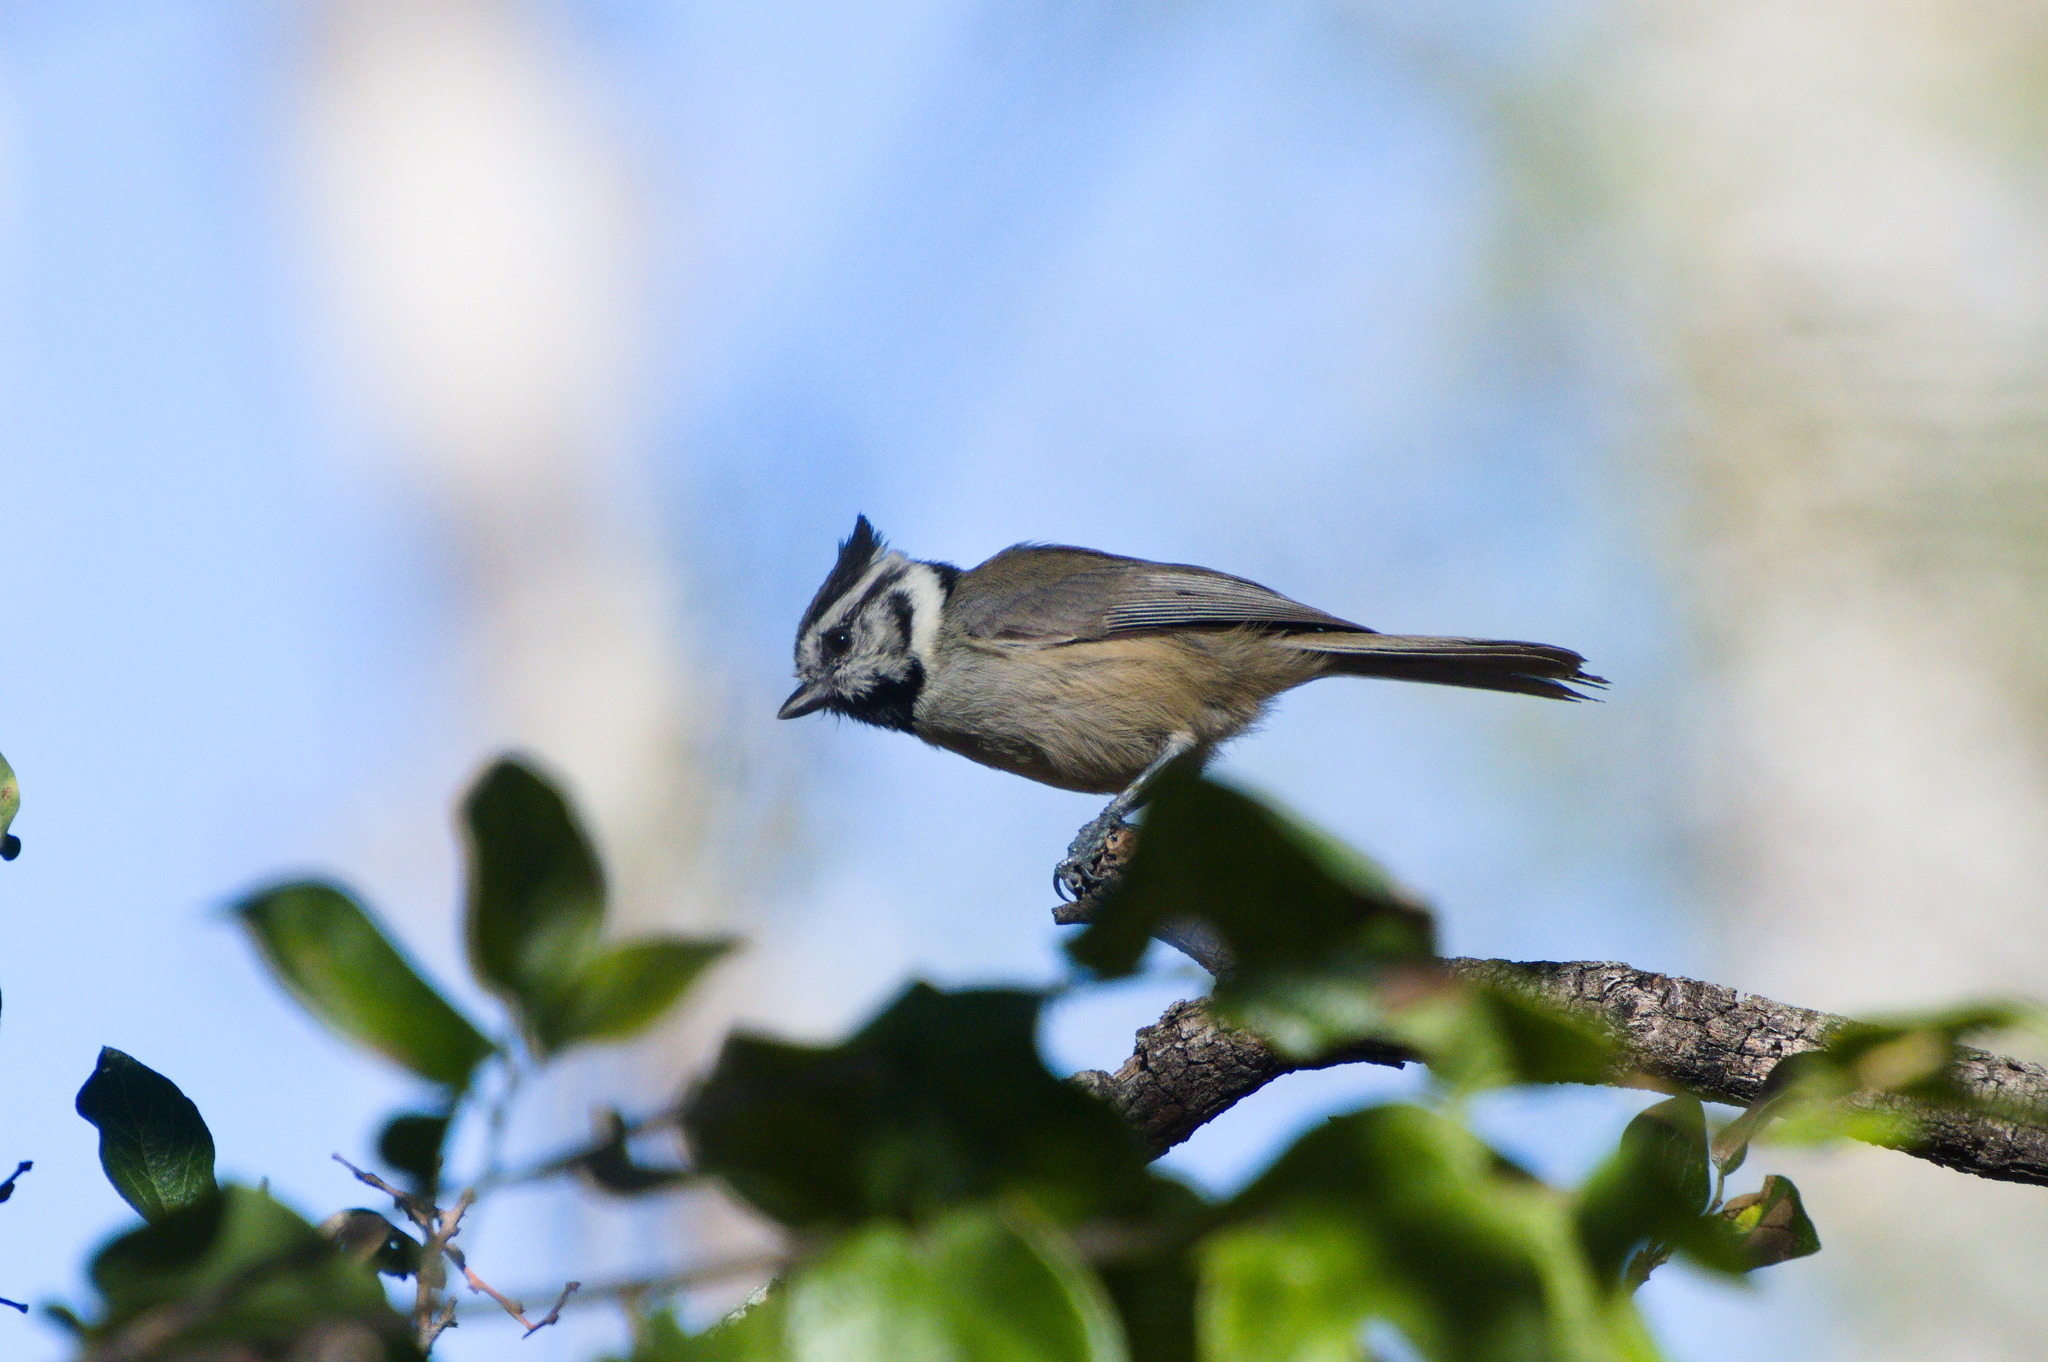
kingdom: Animalia
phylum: Chordata
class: Aves
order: Passeriformes
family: Paridae
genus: Baeolophus
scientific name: Baeolophus wollweberi
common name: Bridled titmouse
